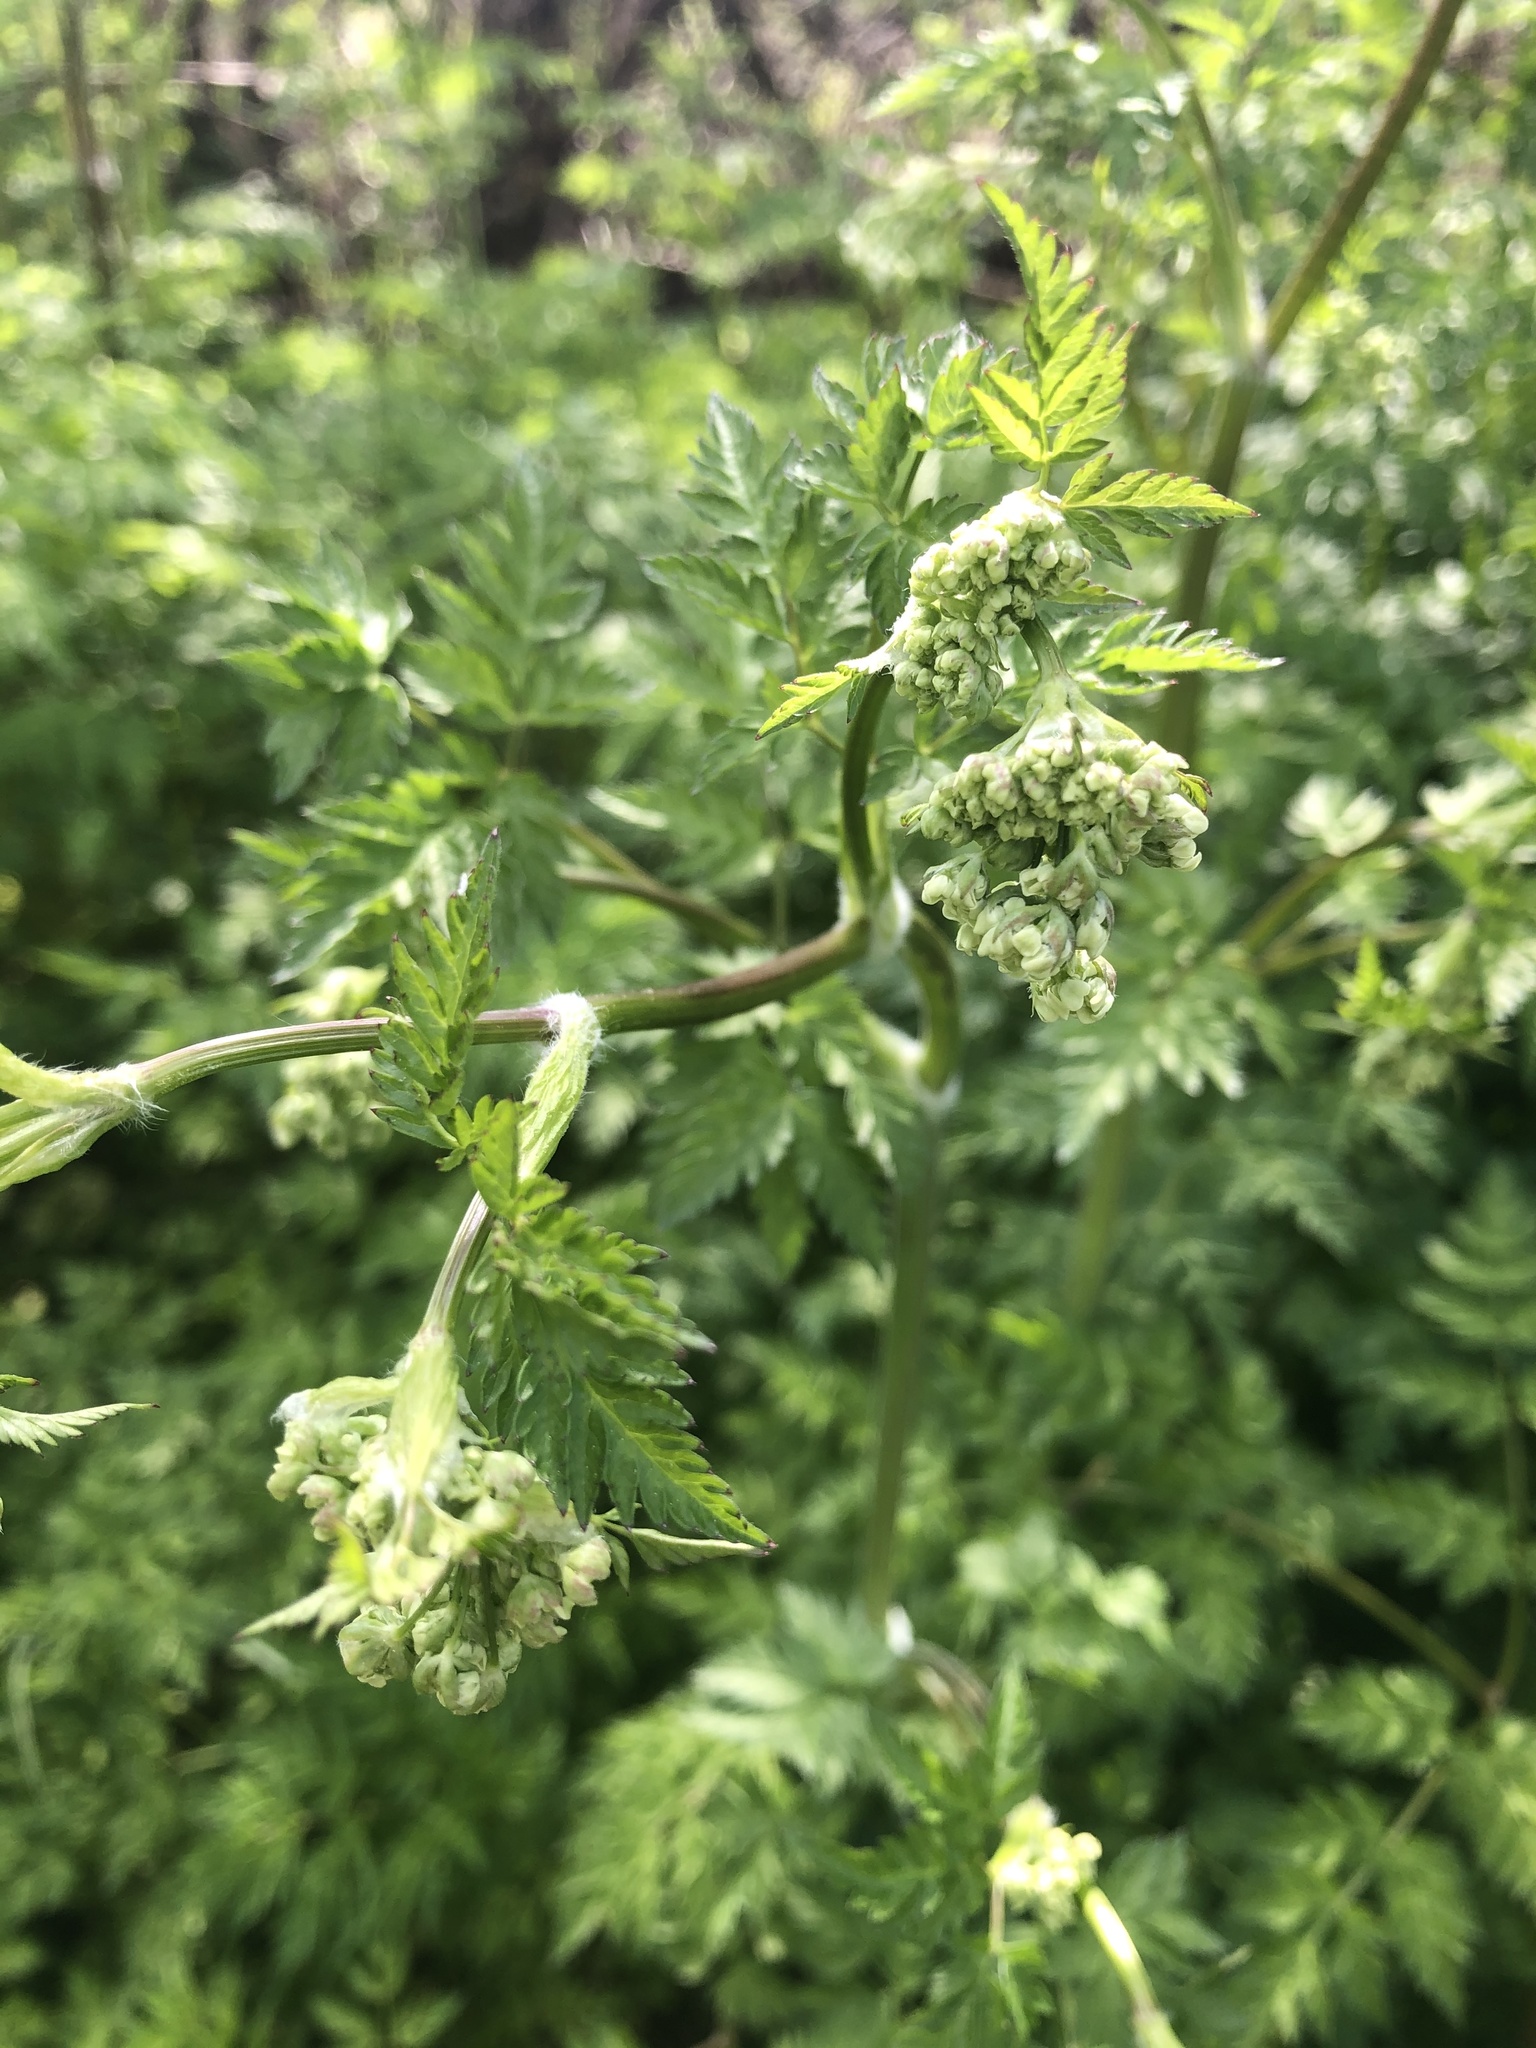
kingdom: Plantae
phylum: Tracheophyta
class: Magnoliopsida
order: Apiales
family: Apiaceae
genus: Anthriscus
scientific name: Anthriscus sylvestris
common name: Cow parsley
